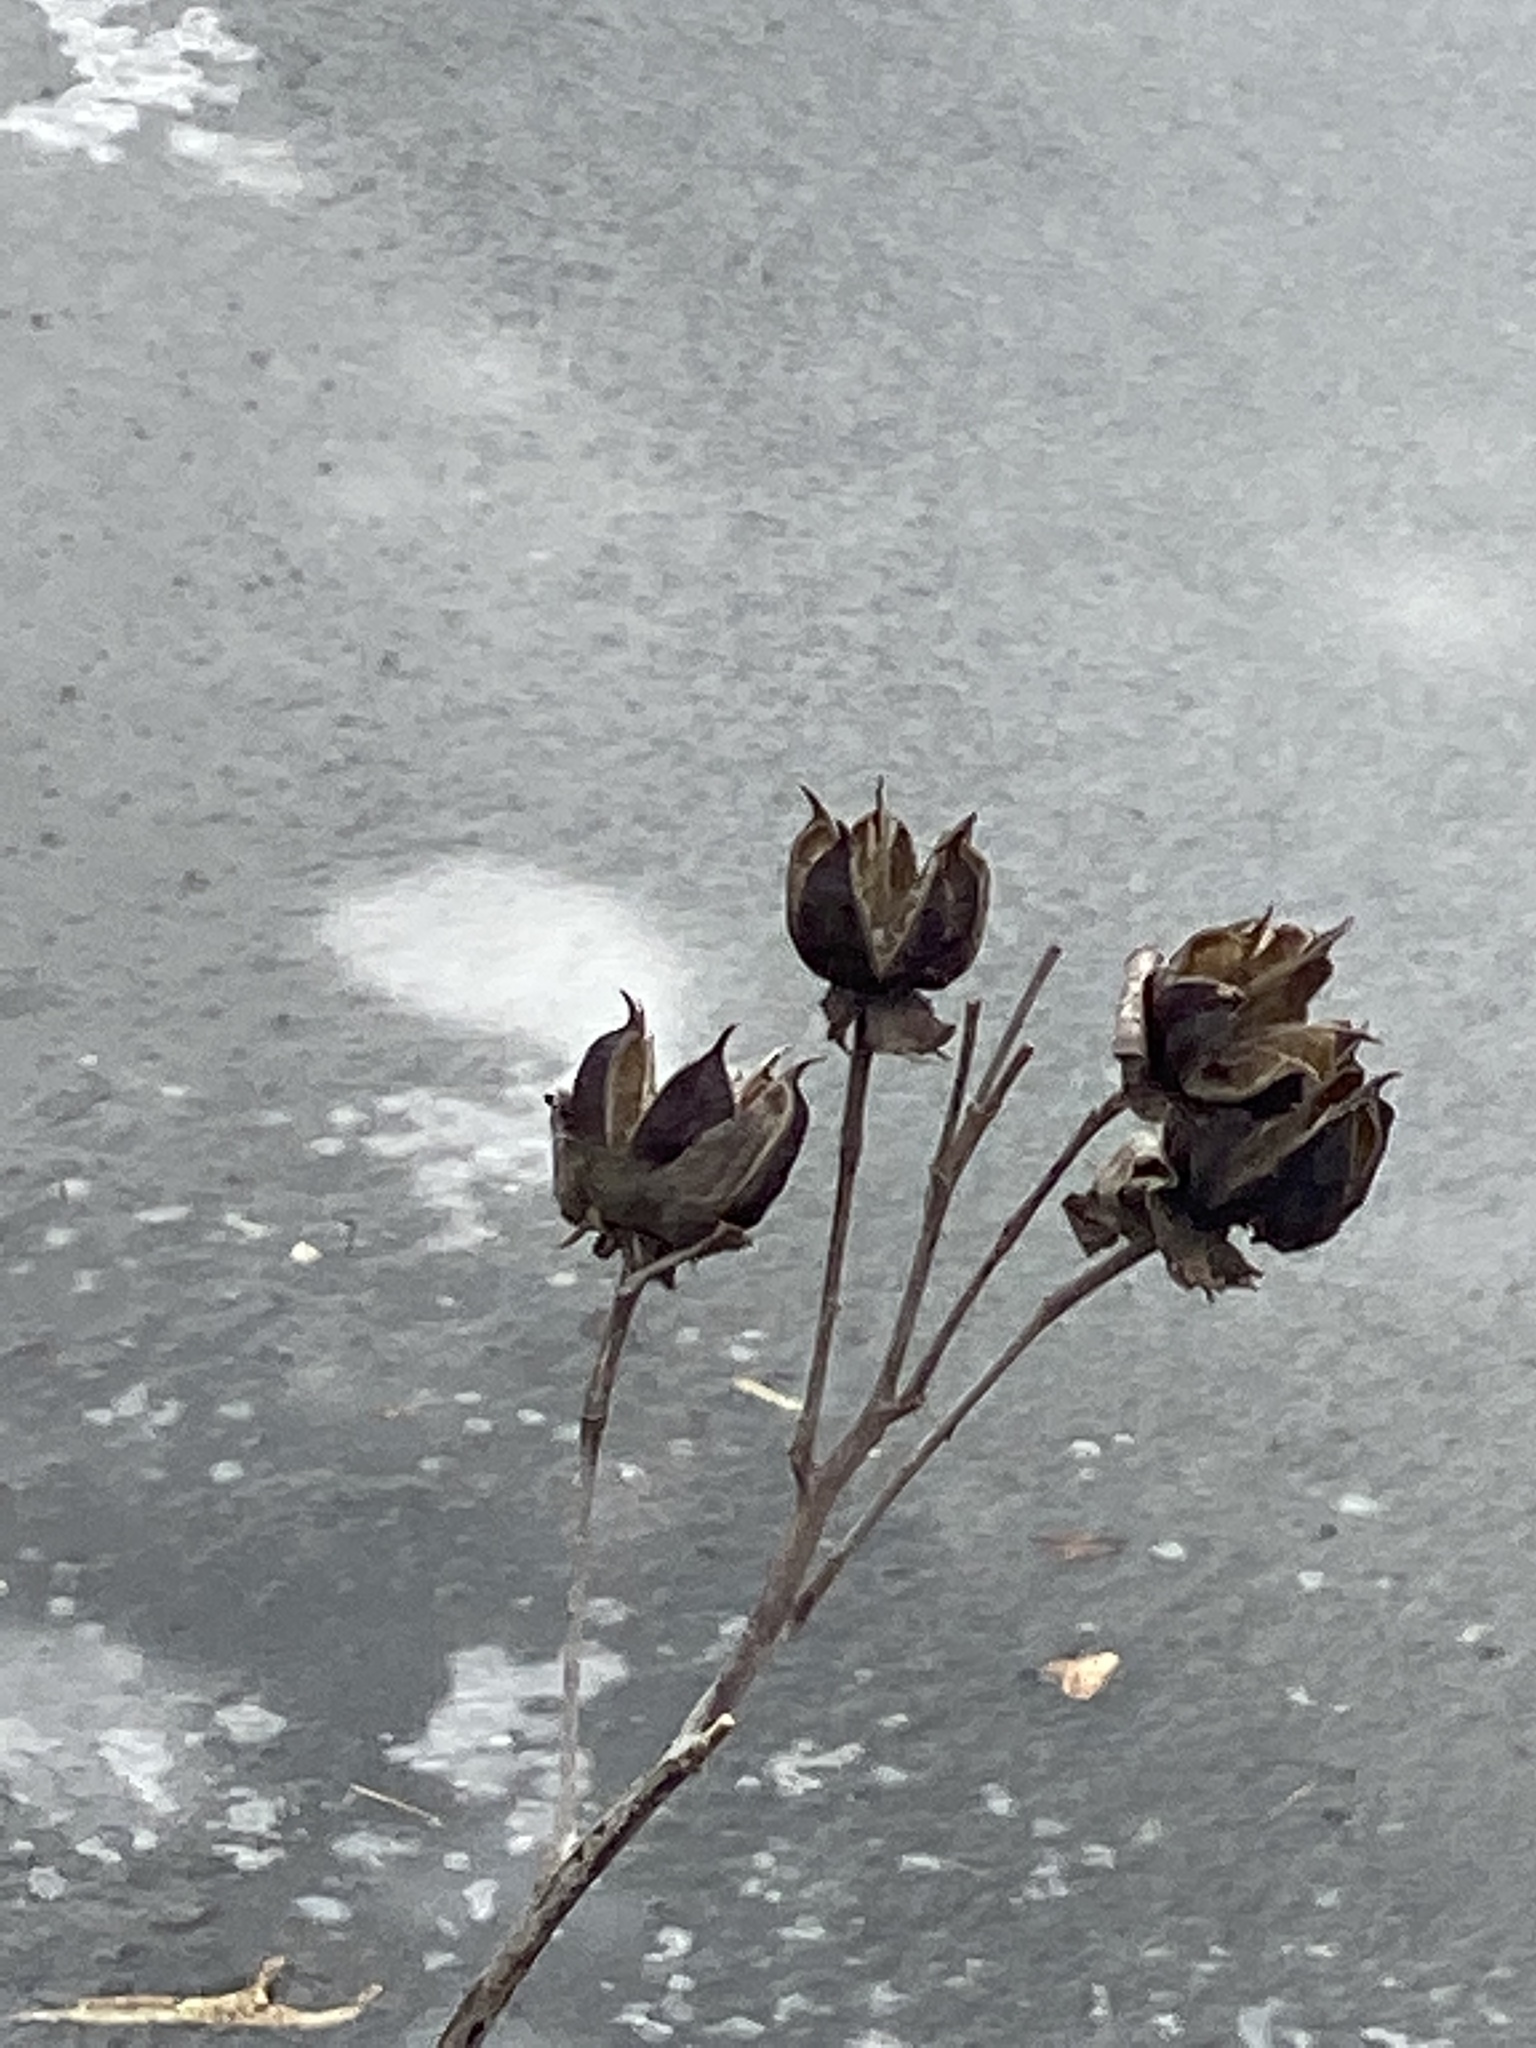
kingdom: Plantae
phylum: Tracheophyta
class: Magnoliopsida
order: Malvales
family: Malvaceae
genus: Hibiscus
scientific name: Hibiscus moscheutos
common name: Common rose-mallow
